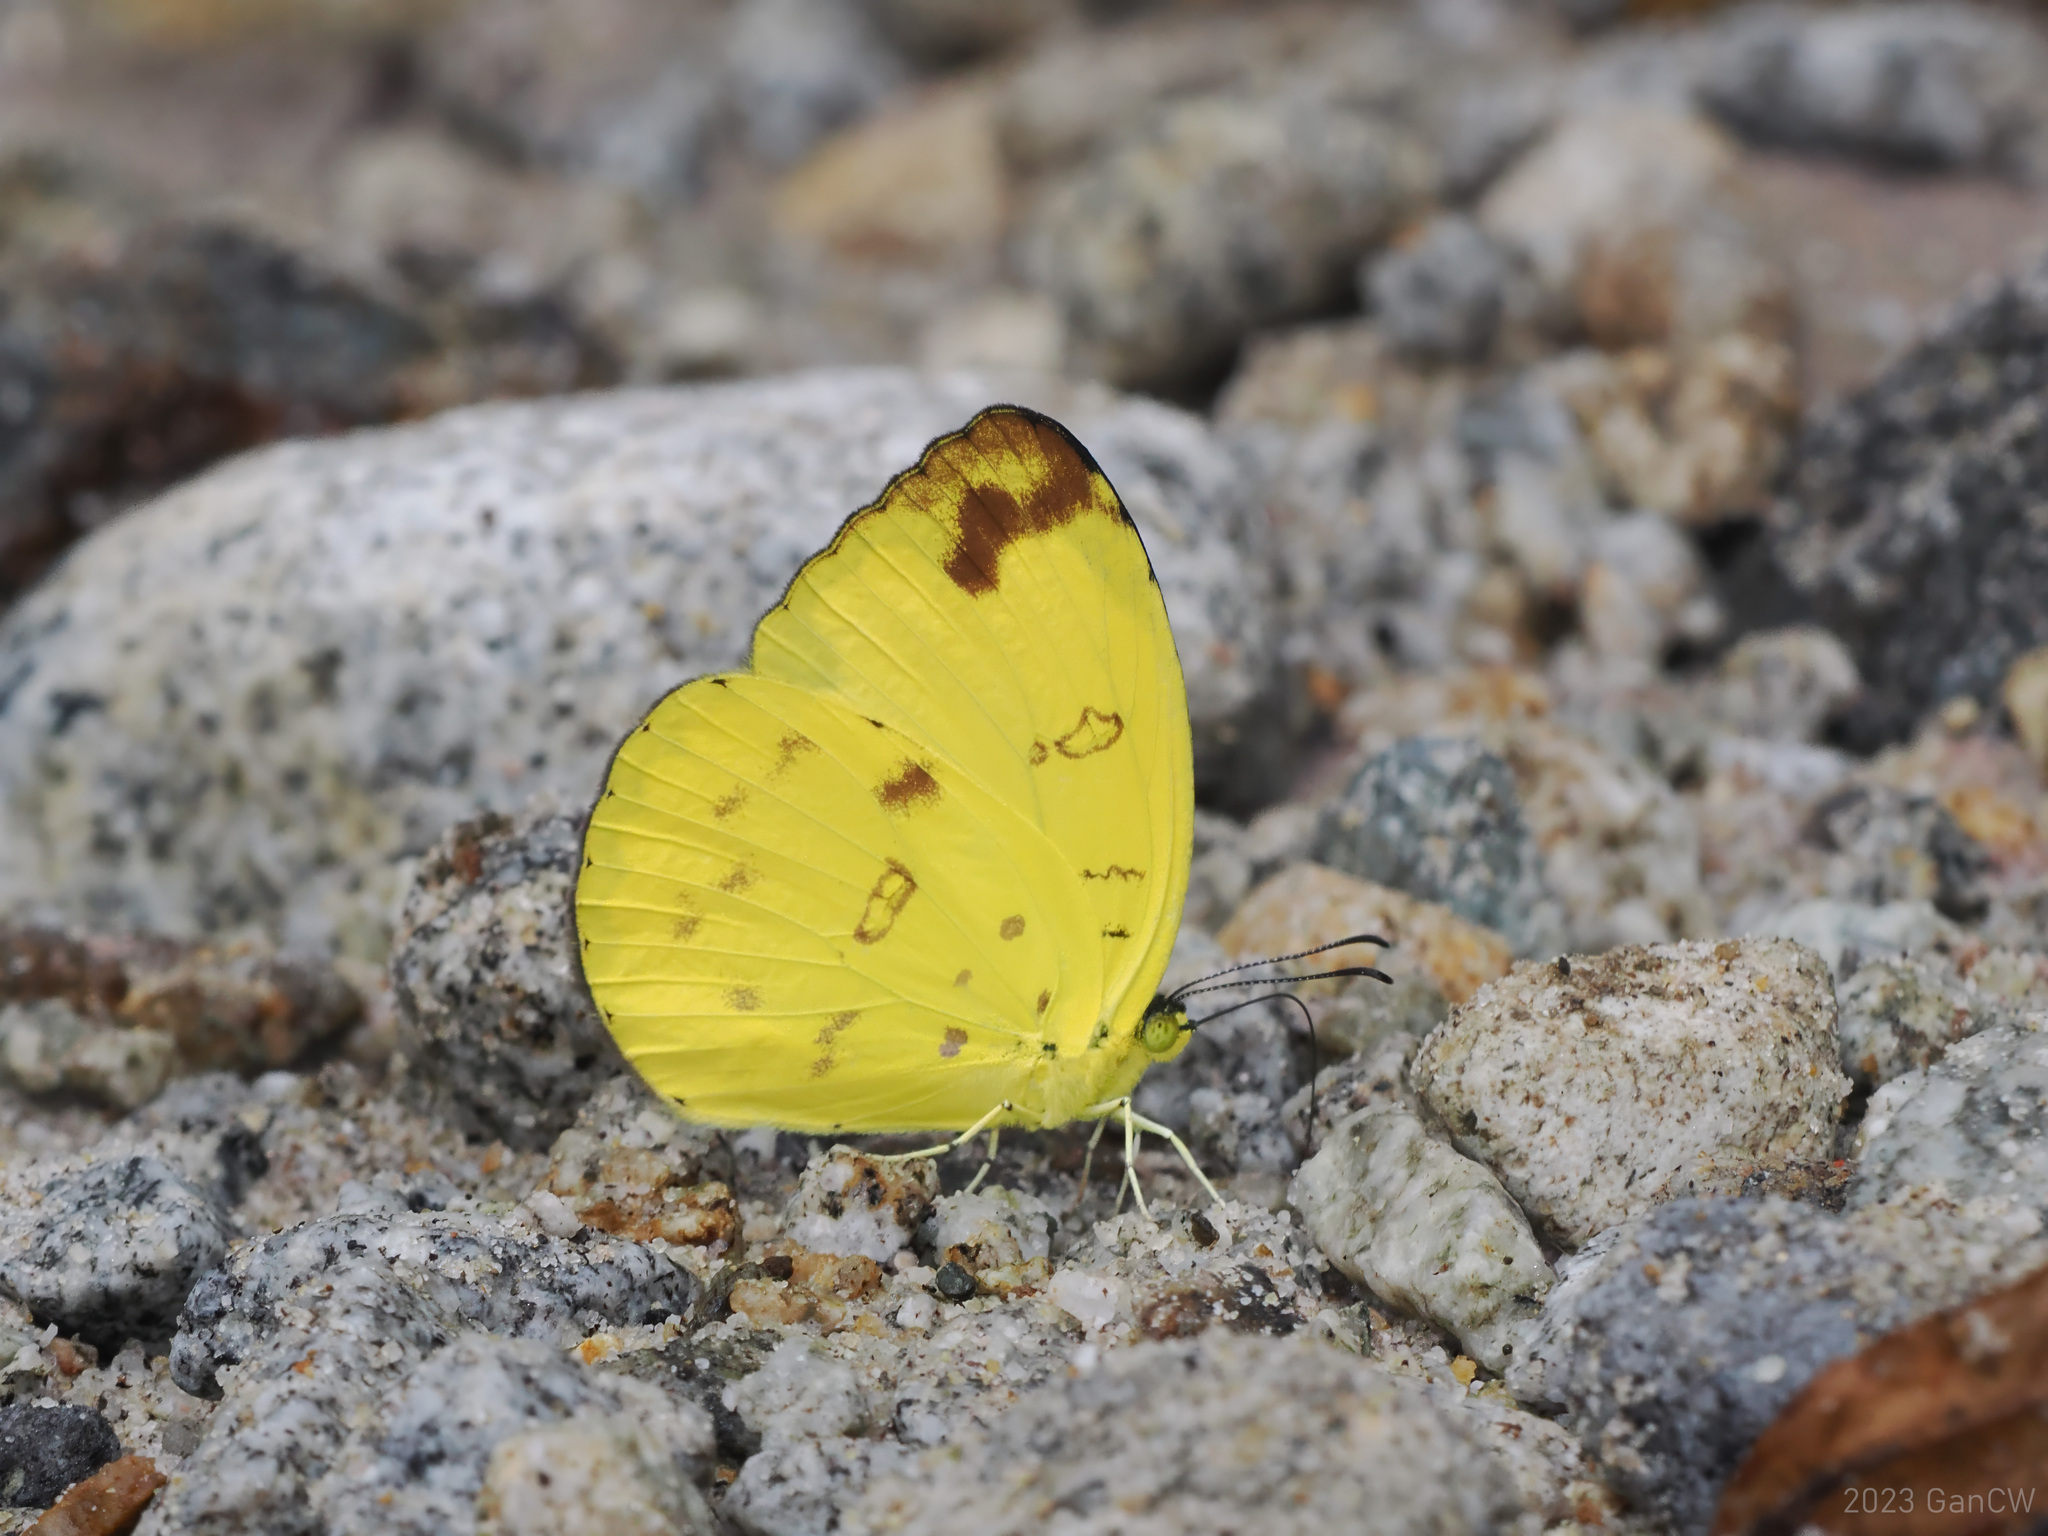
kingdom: Animalia
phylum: Arthropoda
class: Insecta
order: Lepidoptera
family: Pieridae
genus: Eurema
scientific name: Eurema irena
